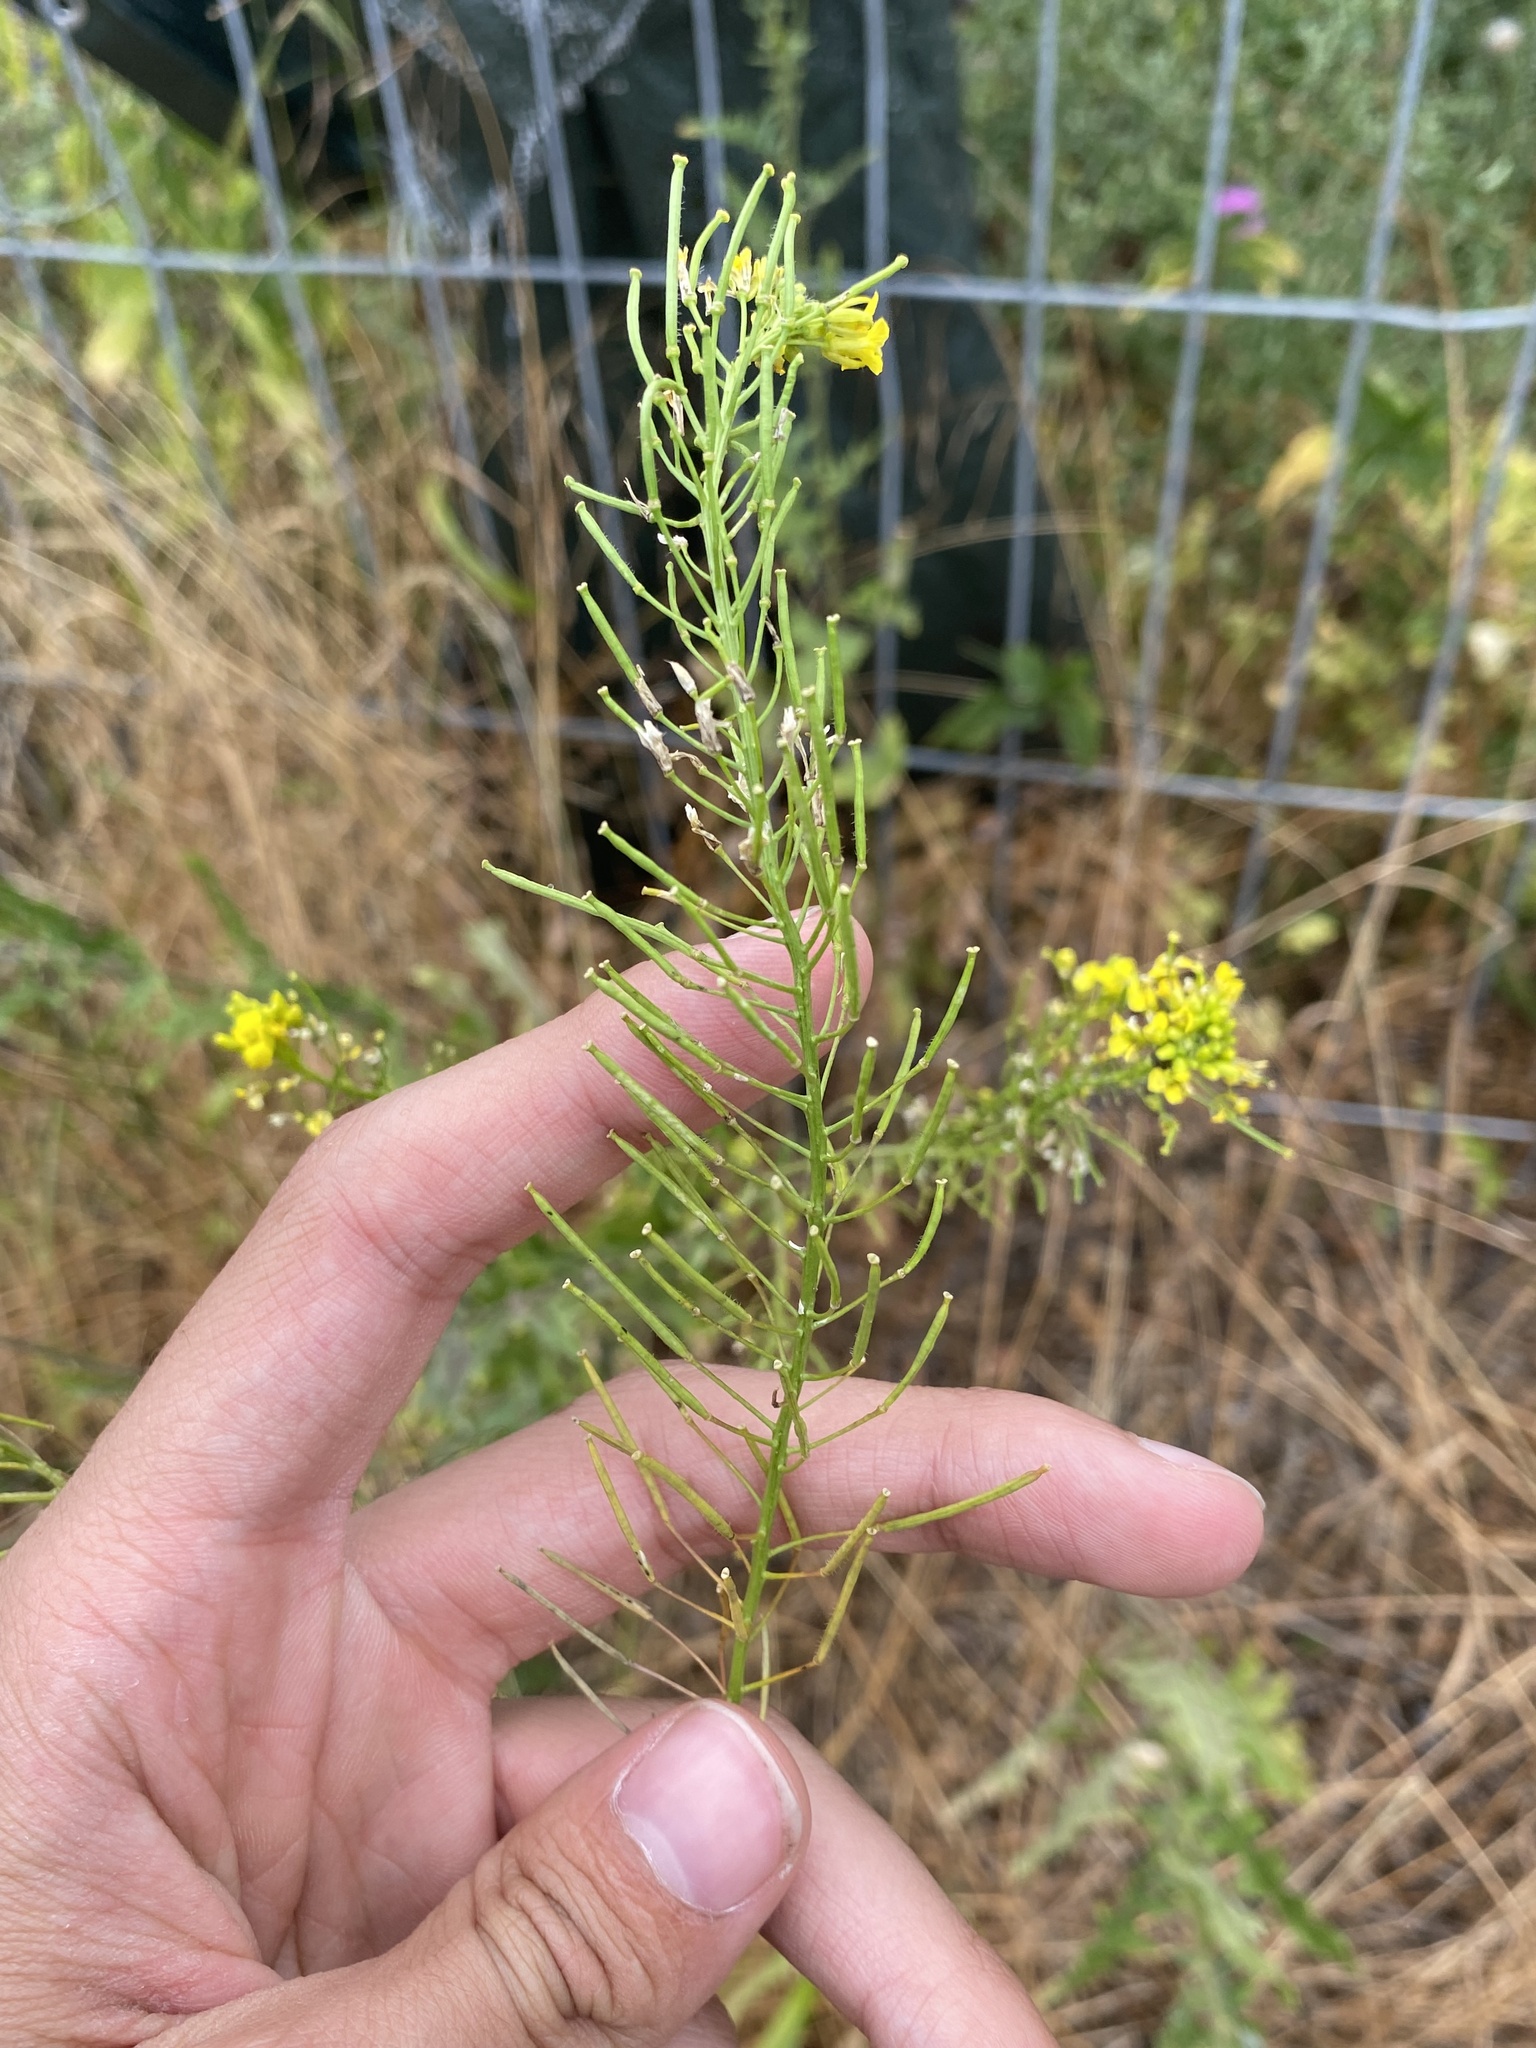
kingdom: Plantae
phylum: Tracheophyta
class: Magnoliopsida
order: Brassicales
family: Brassicaceae
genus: Erysimum
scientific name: Erysimum cheiranthoides
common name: Treacle mustard
